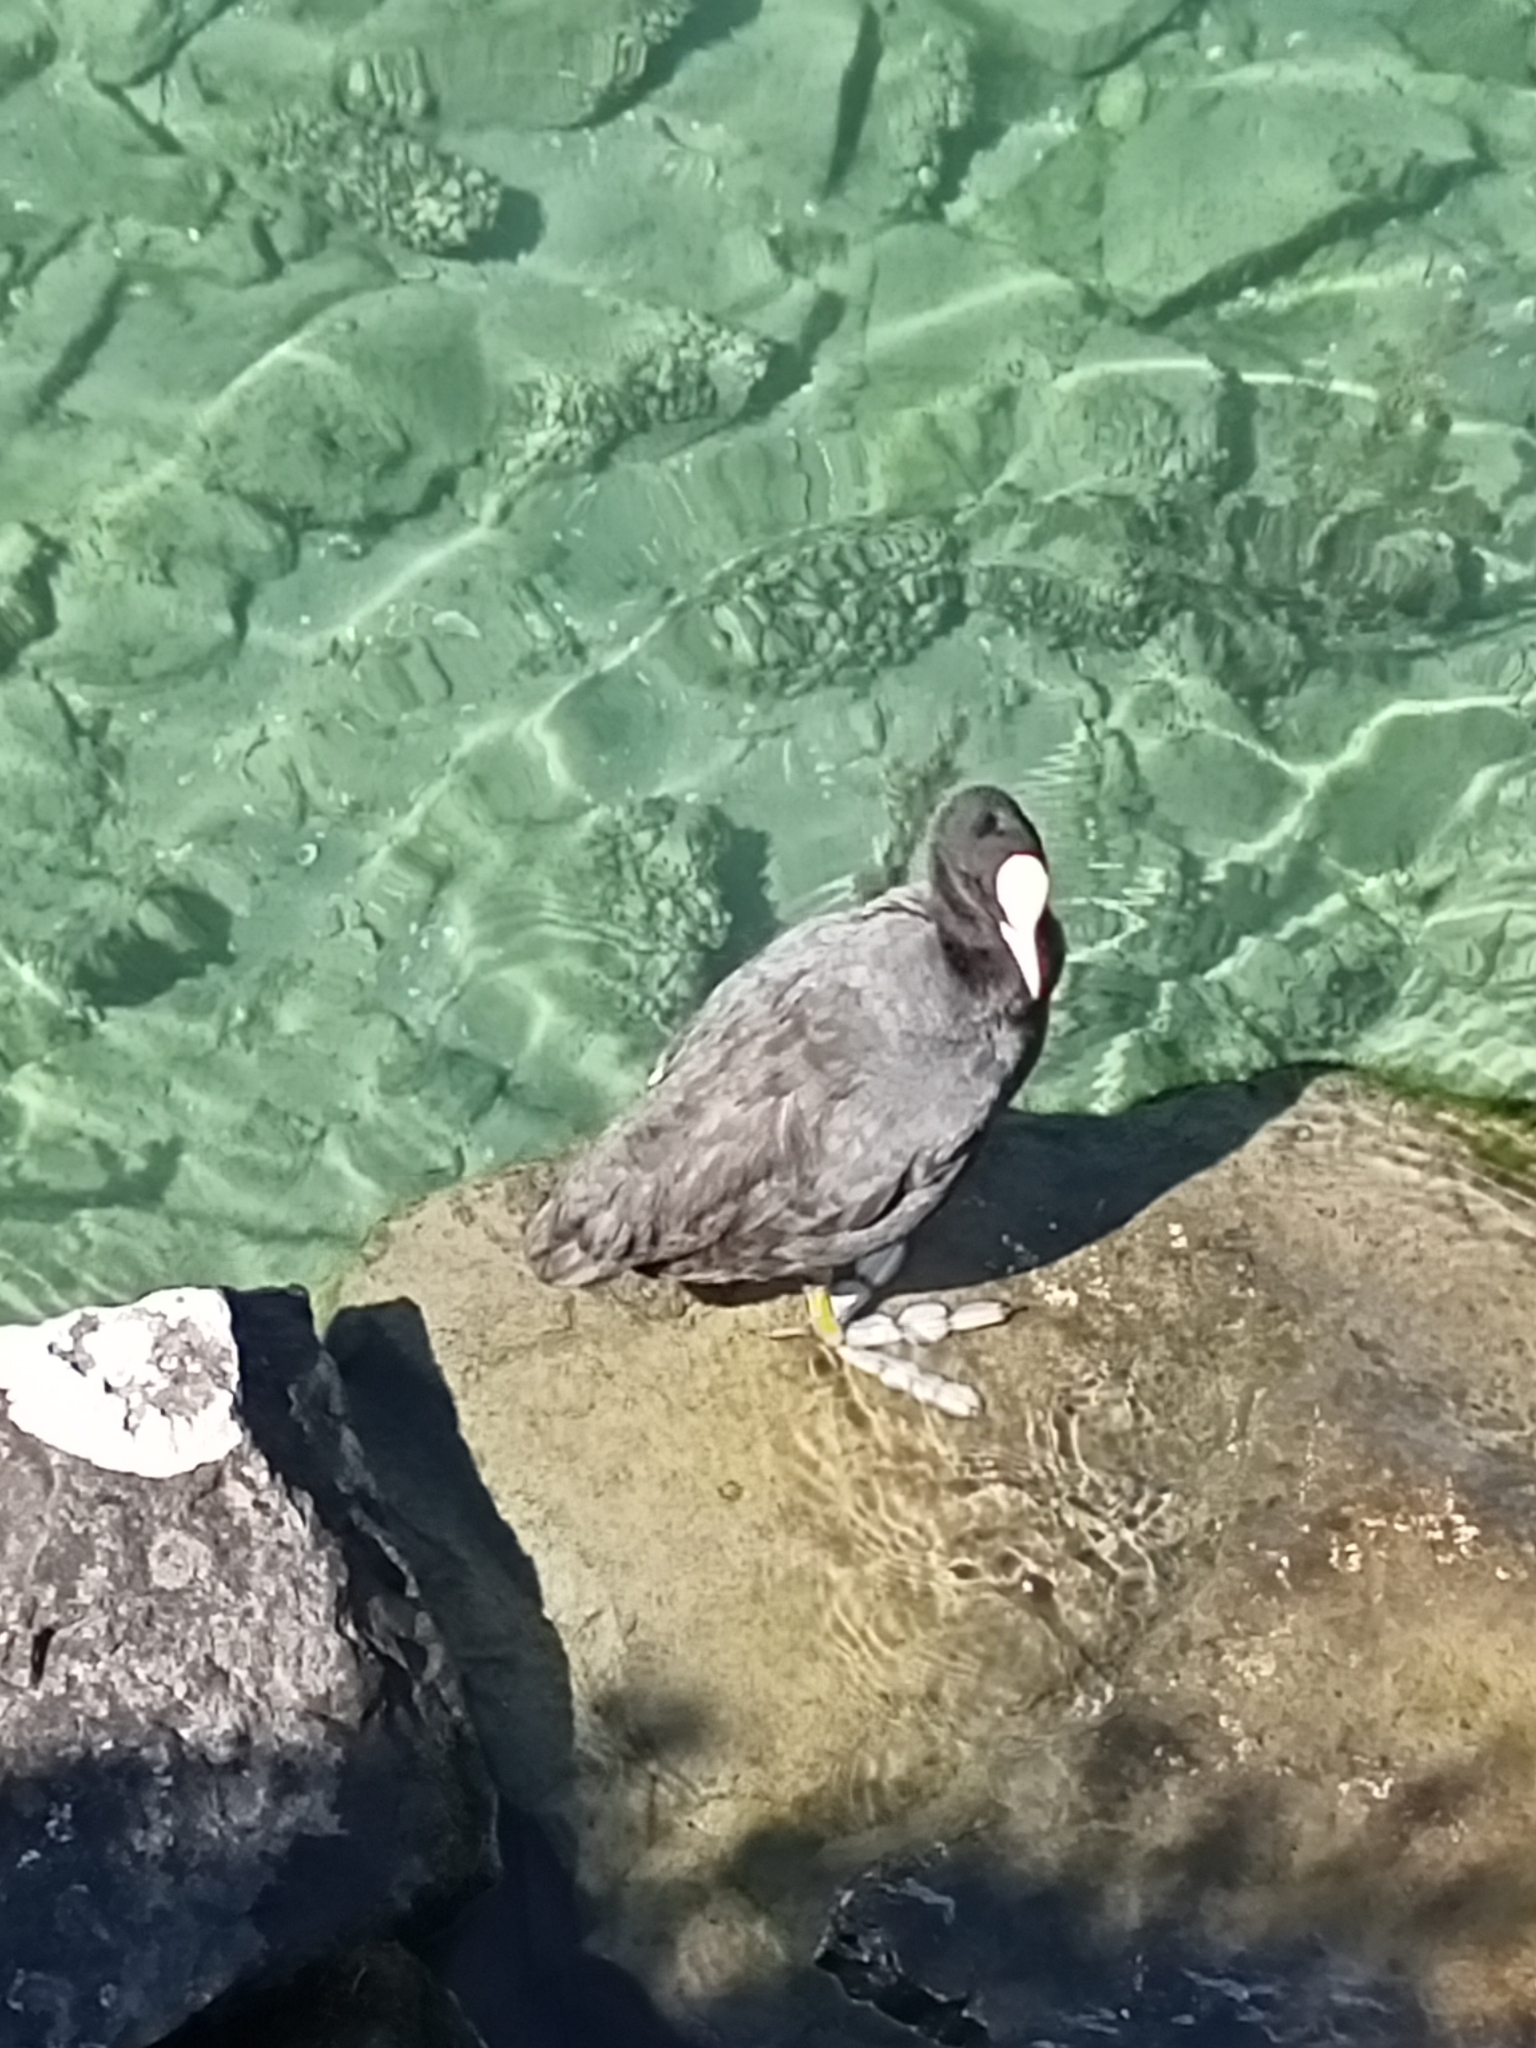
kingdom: Animalia
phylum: Chordata
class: Aves
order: Gruiformes
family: Rallidae
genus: Fulica
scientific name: Fulica atra
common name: Eurasian coot
